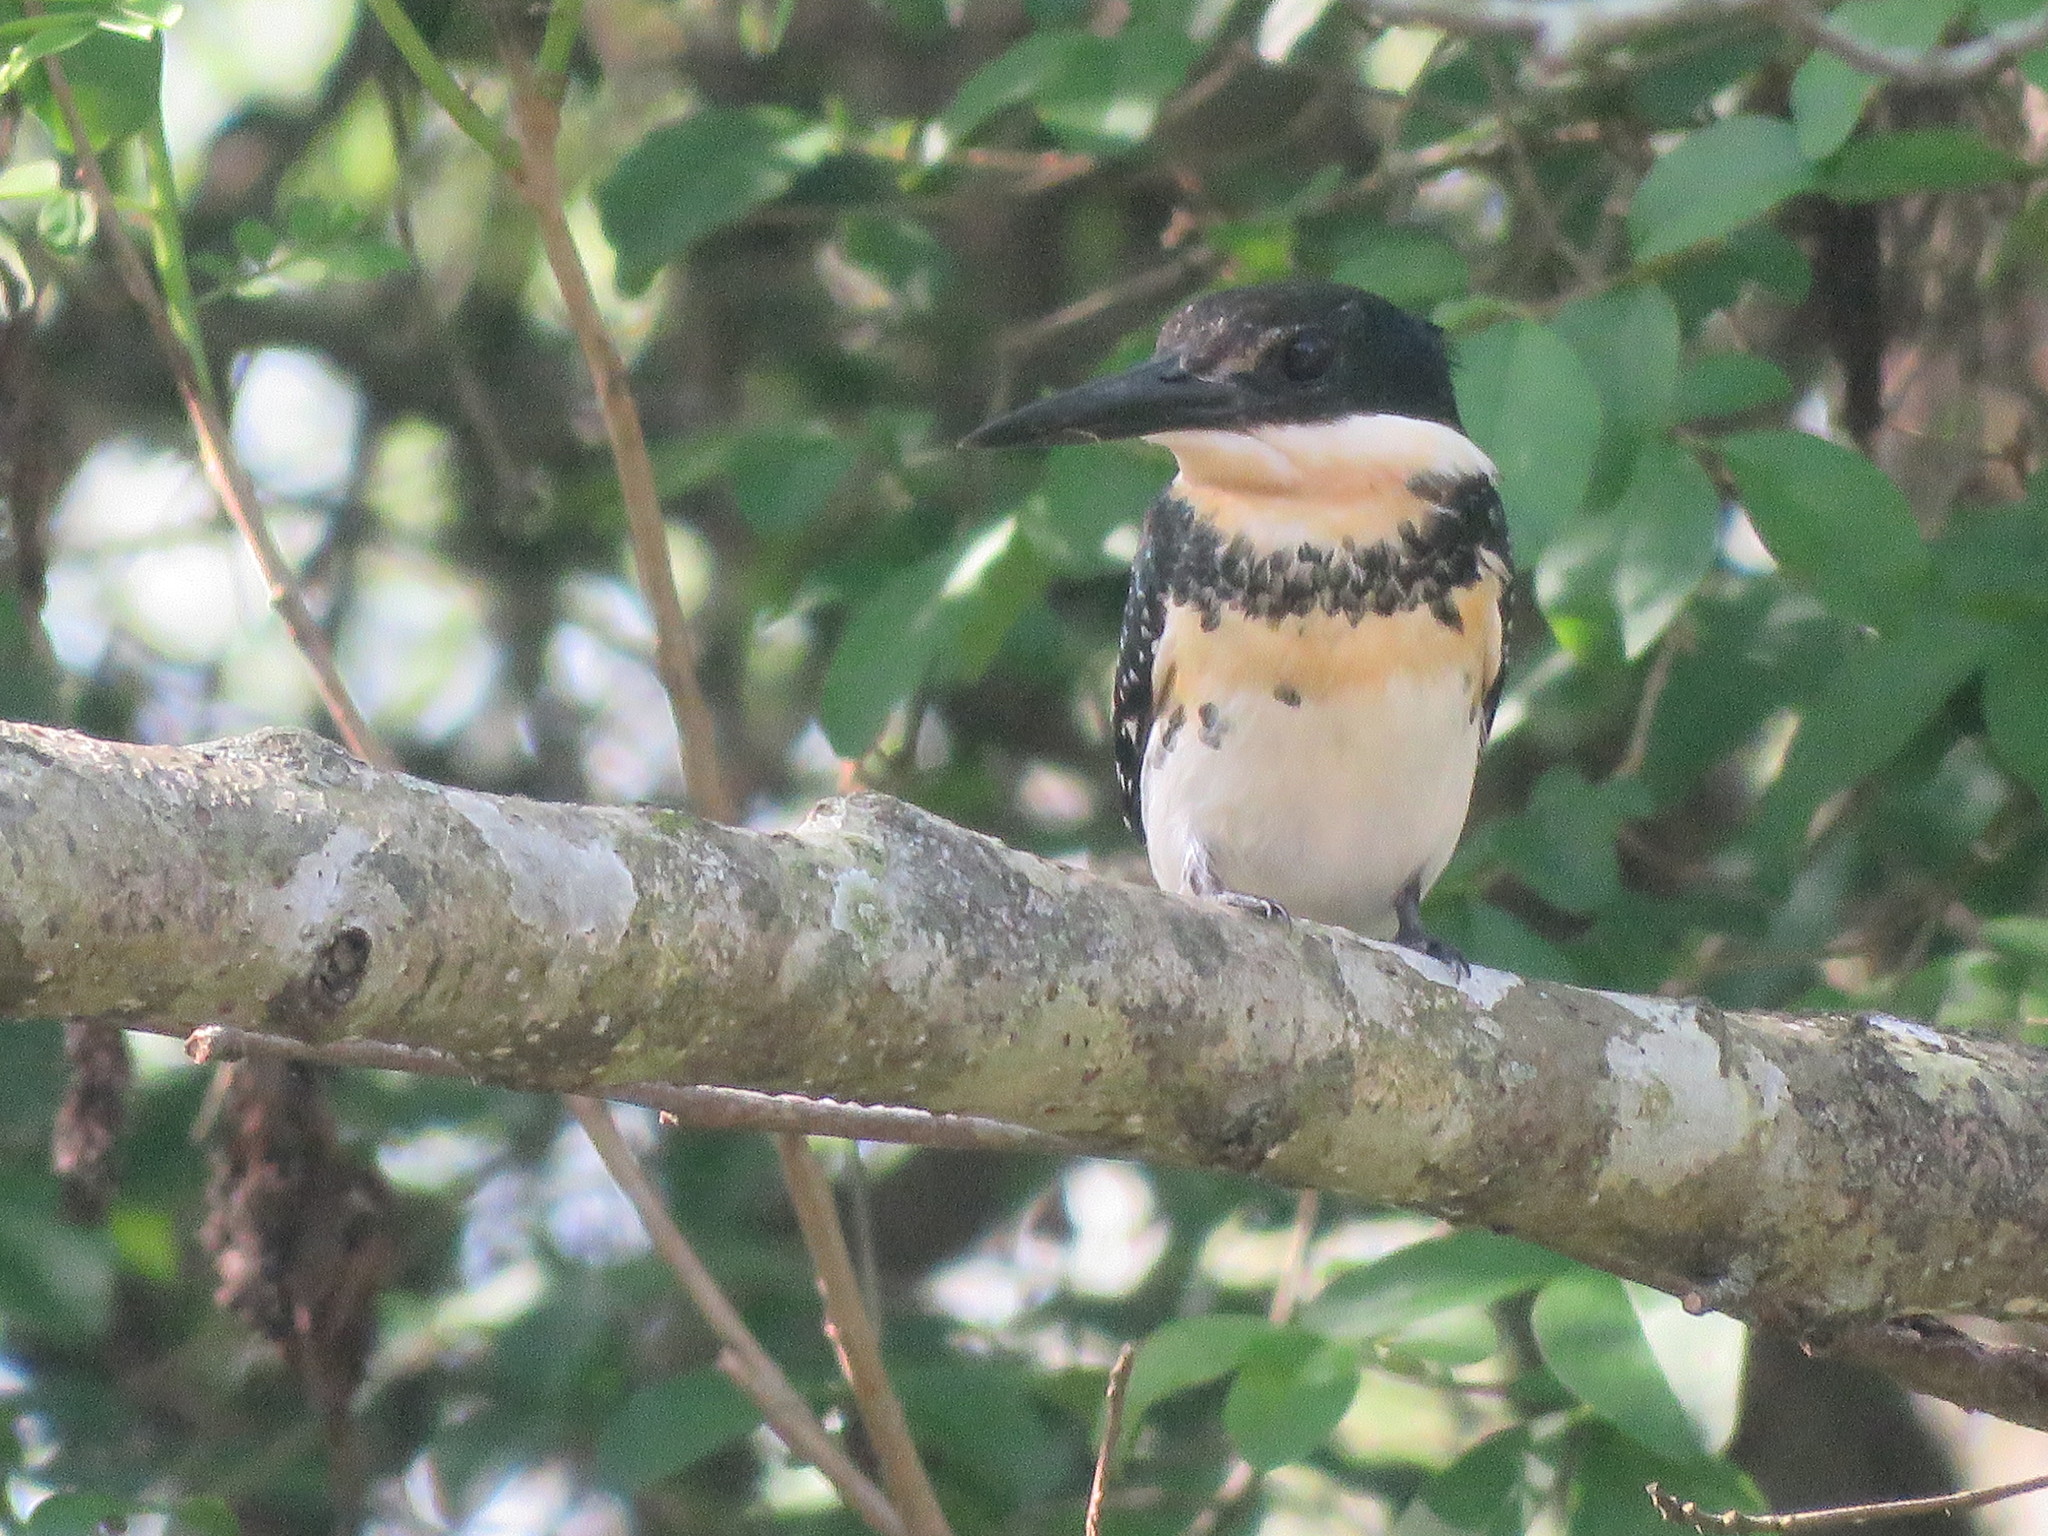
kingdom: Animalia
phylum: Chordata
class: Aves
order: Coraciiformes
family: Alcedinidae
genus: Chloroceryle
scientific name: Chloroceryle americana
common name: Green kingfisher
